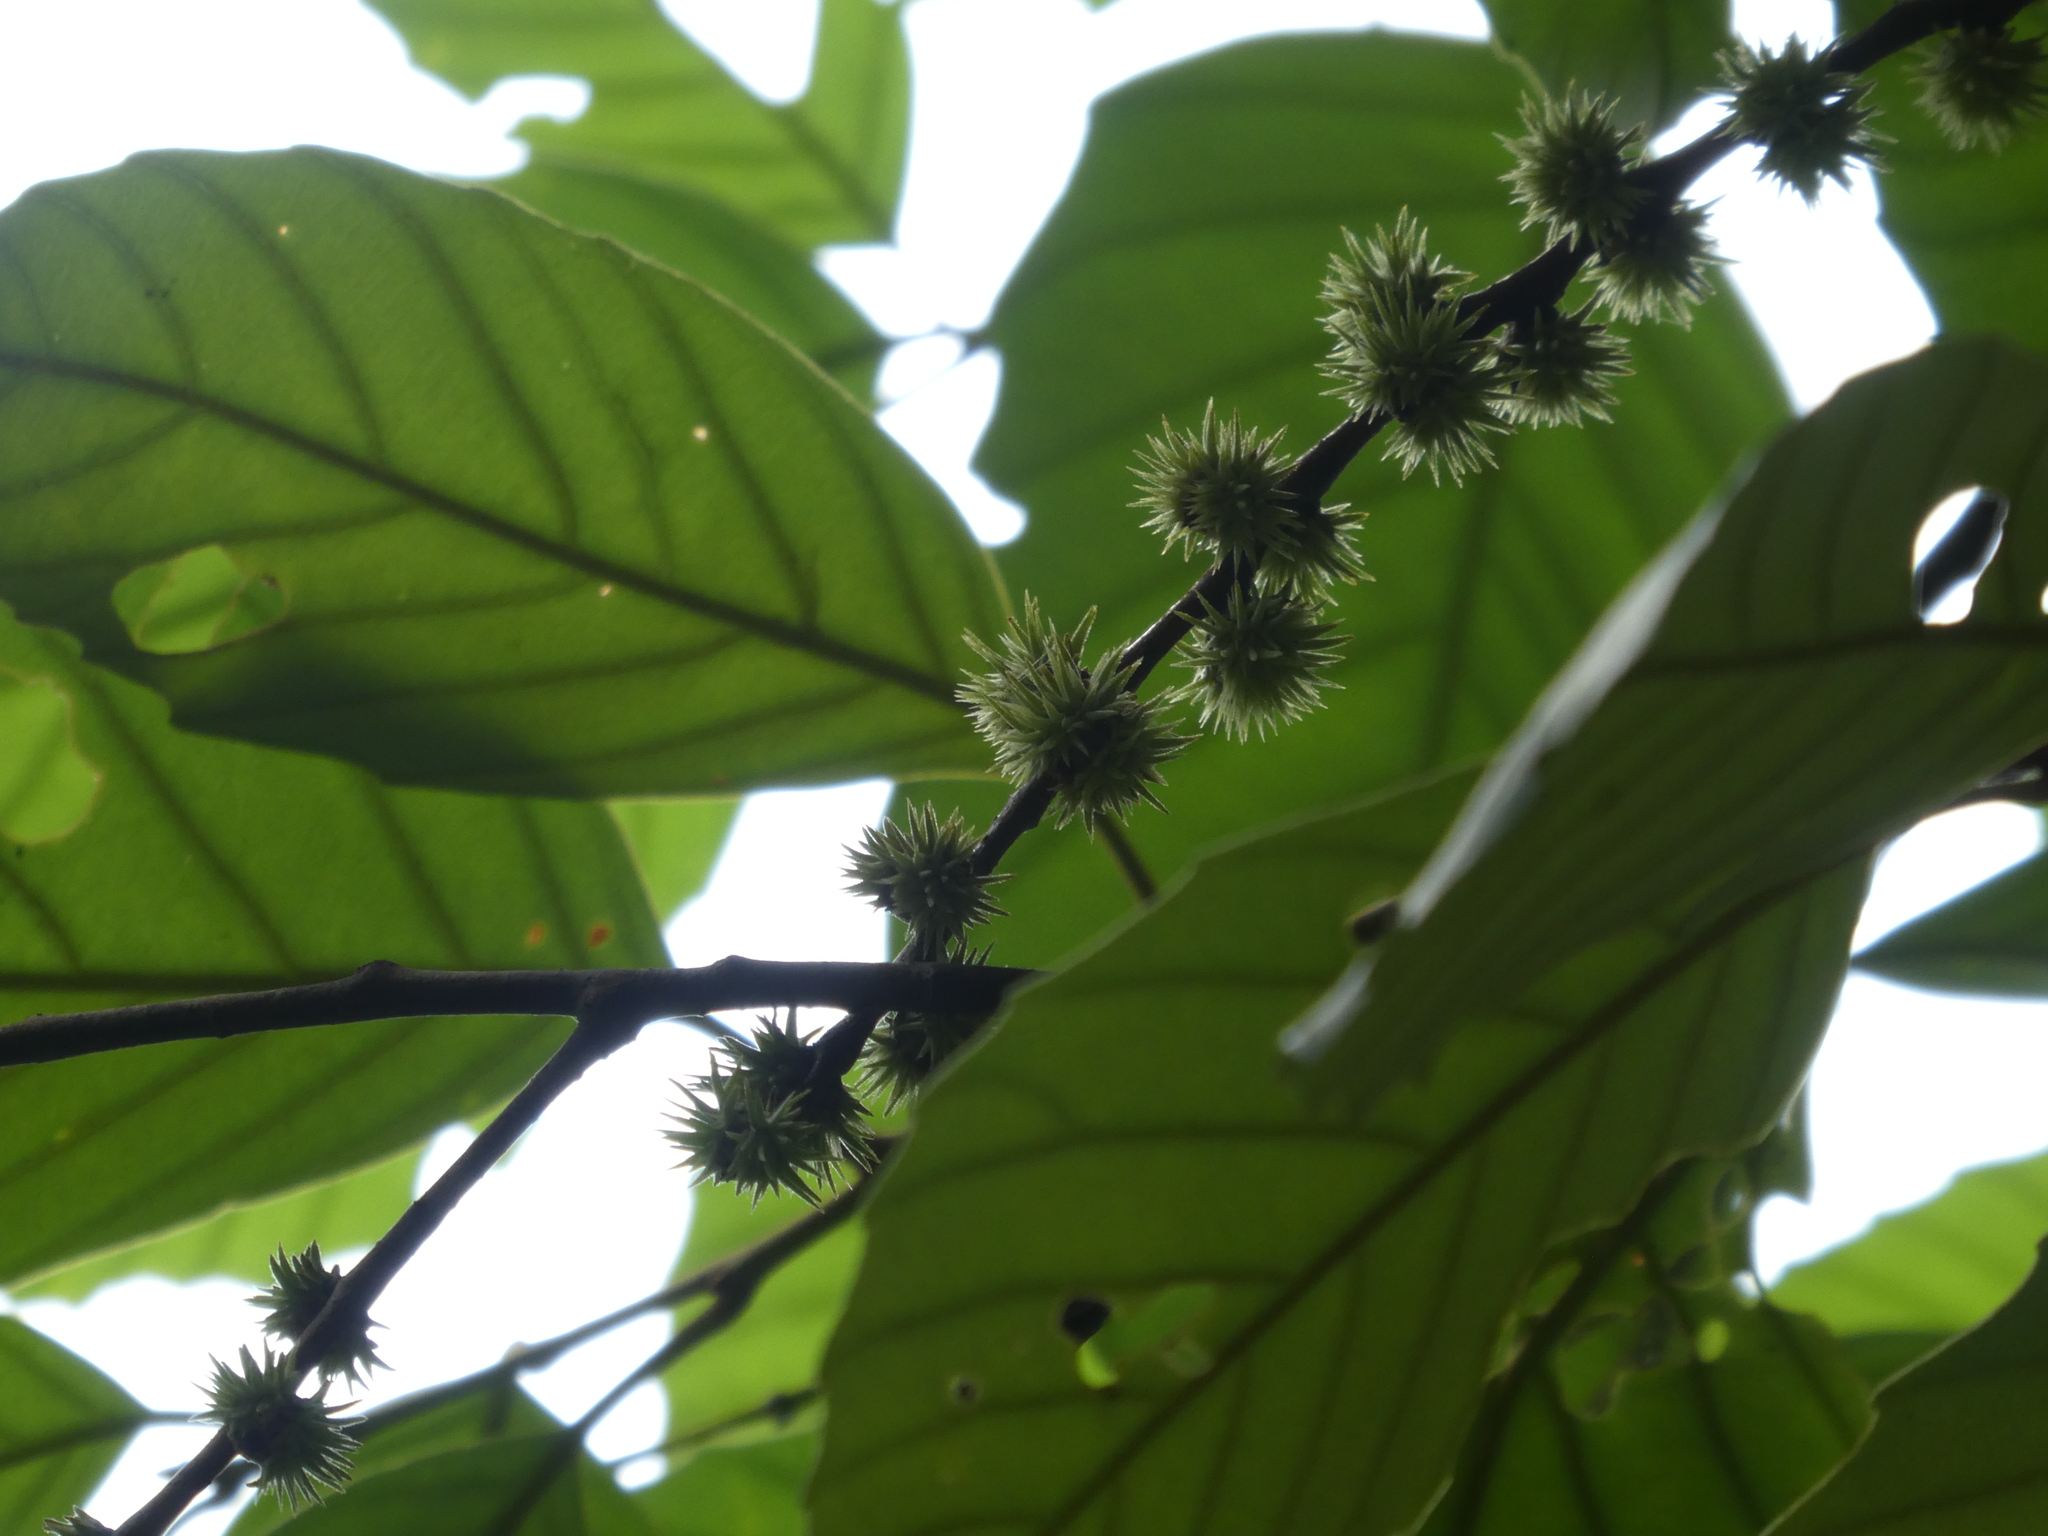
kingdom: Plantae
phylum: Tracheophyta
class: Magnoliopsida
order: Fagales
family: Fagaceae
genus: Castanopsis
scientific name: Castanopsis jucunda
